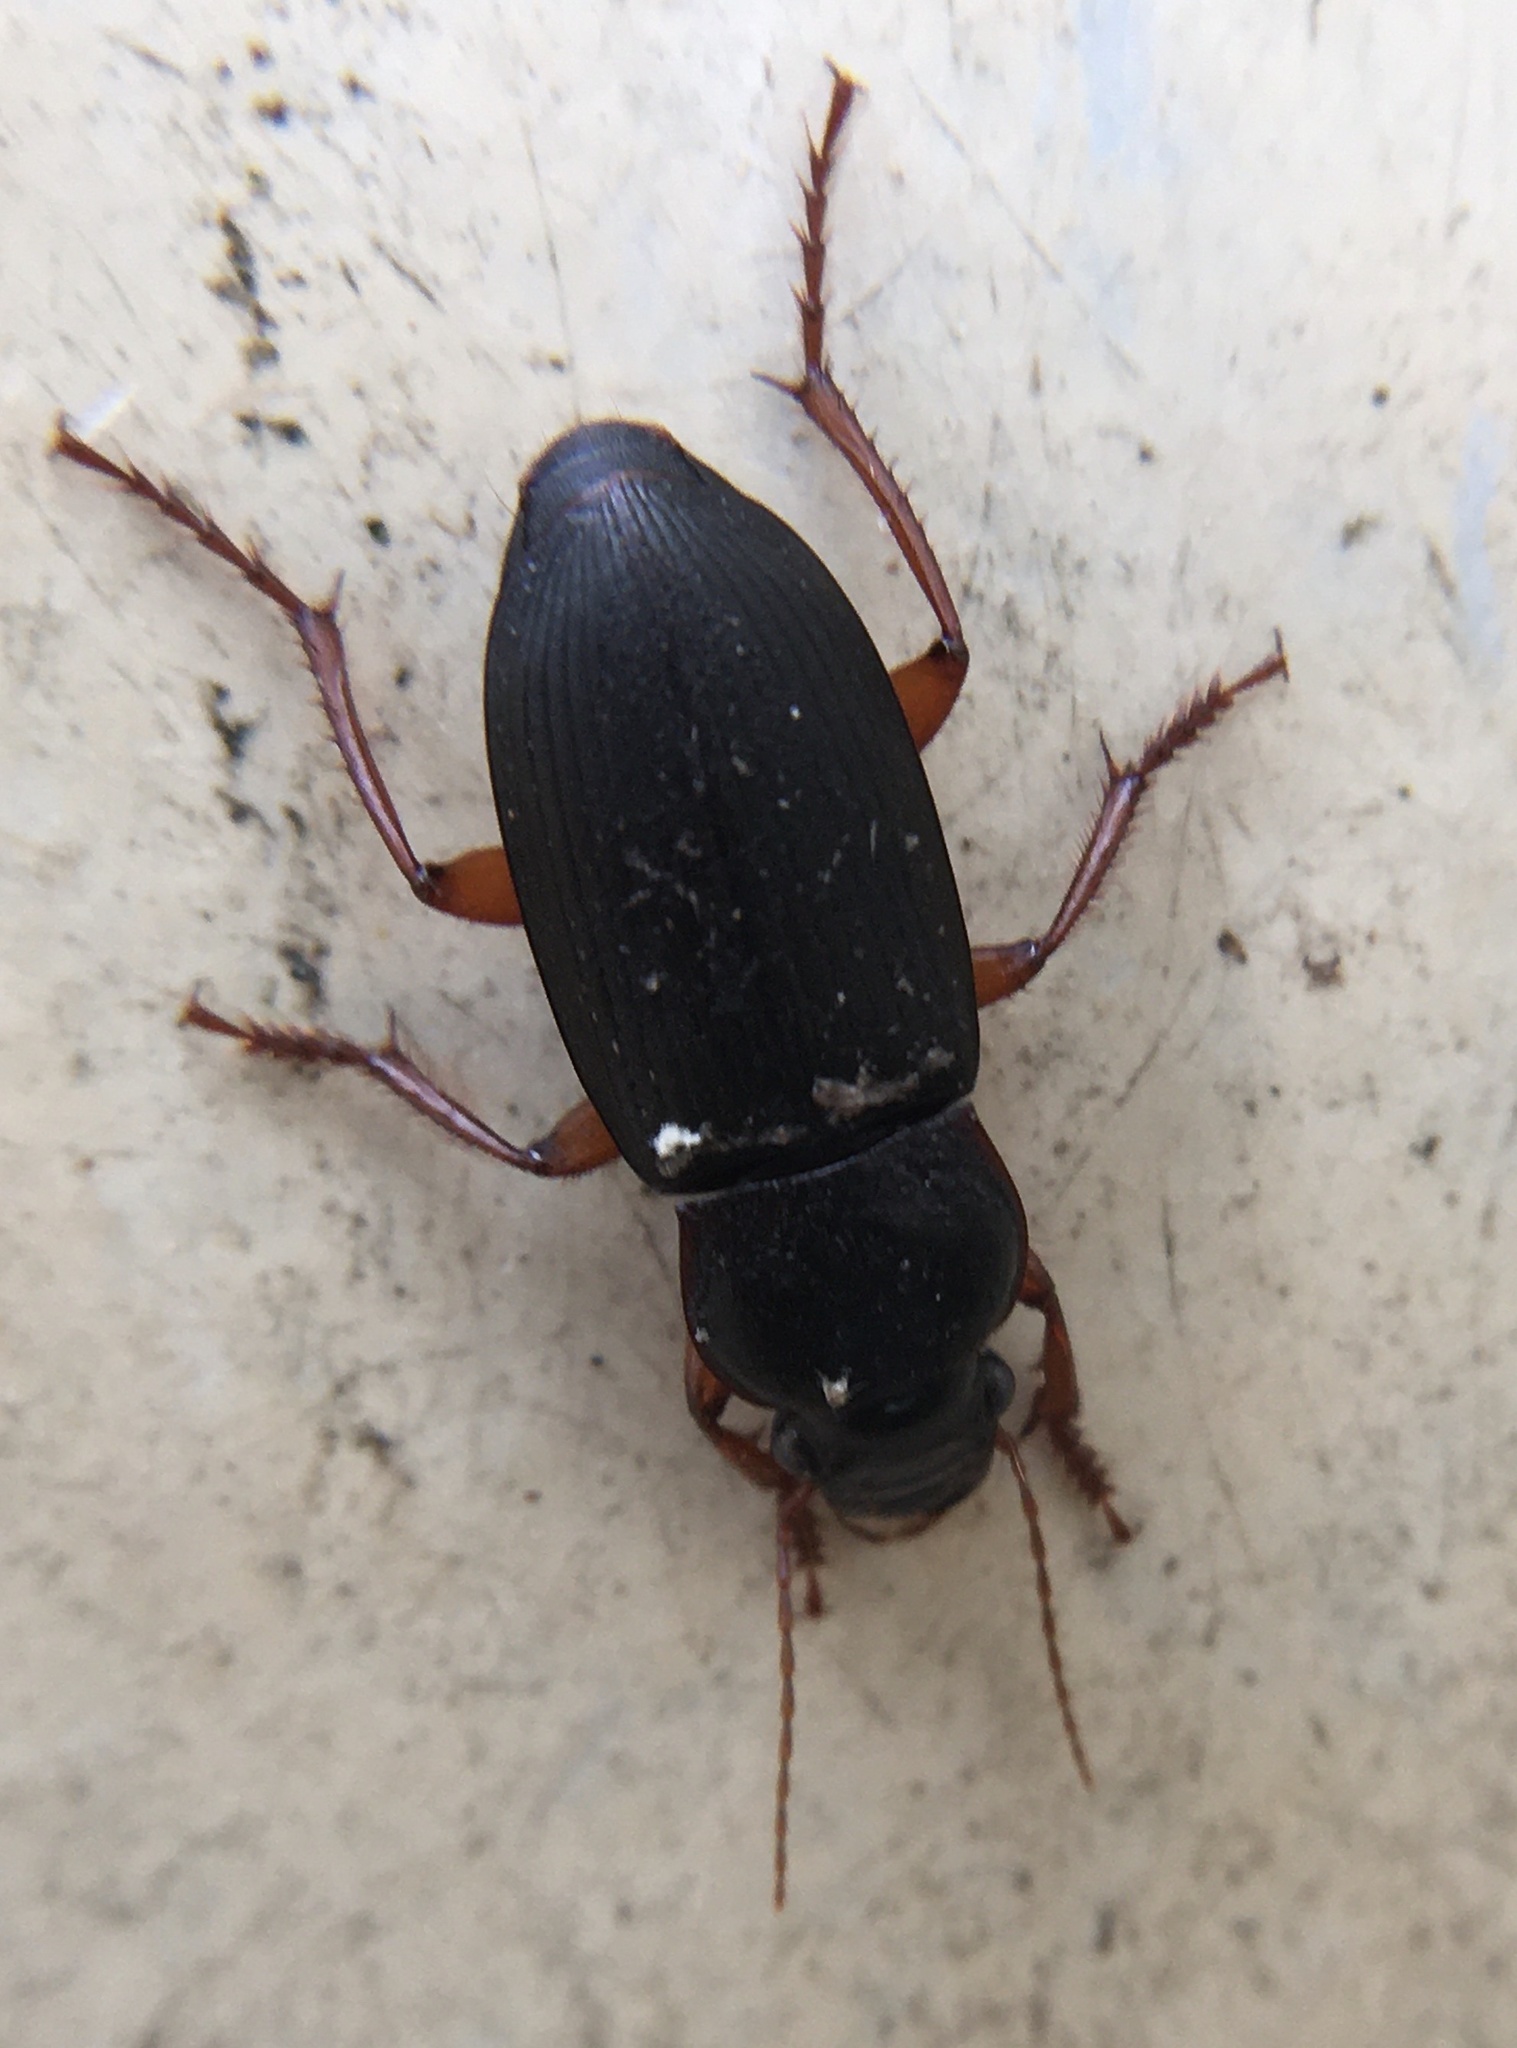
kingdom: Animalia
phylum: Arthropoda
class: Insecta
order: Coleoptera
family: Carabidae
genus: Harpalus
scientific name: Harpalus rufipes
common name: Strawberry harp ground beetle
